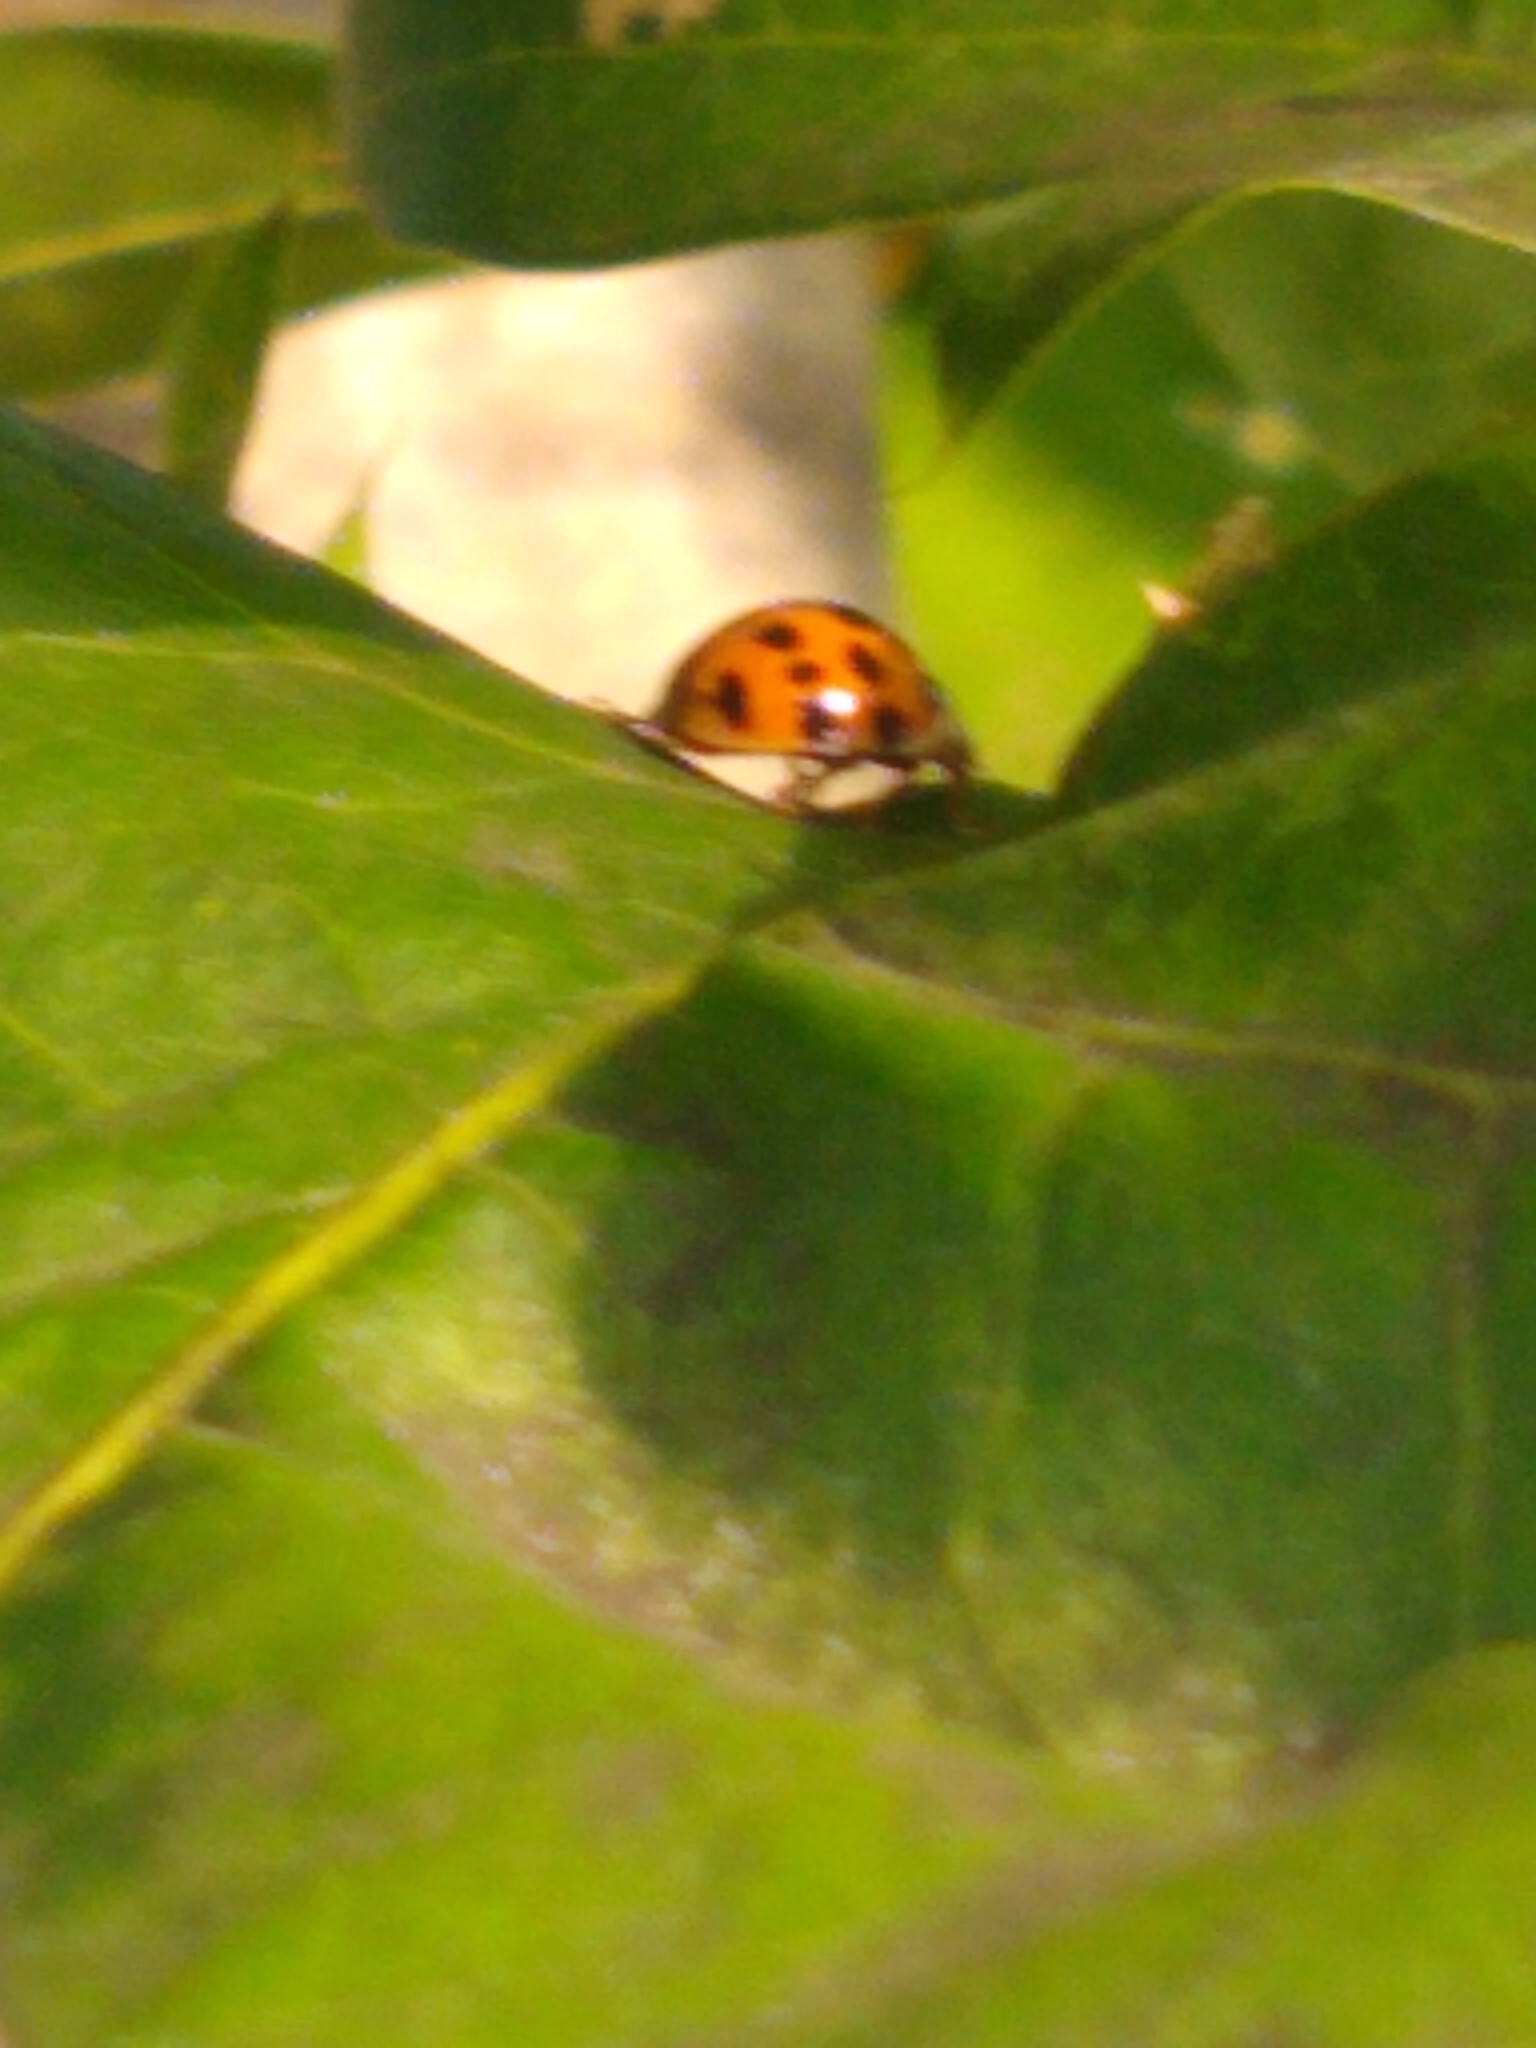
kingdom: Animalia
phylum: Arthropoda
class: Insecta
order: Coleoptera
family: Coccinellidae
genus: Harmonia
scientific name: Harmonia axyridis
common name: Harlequin ladybird
